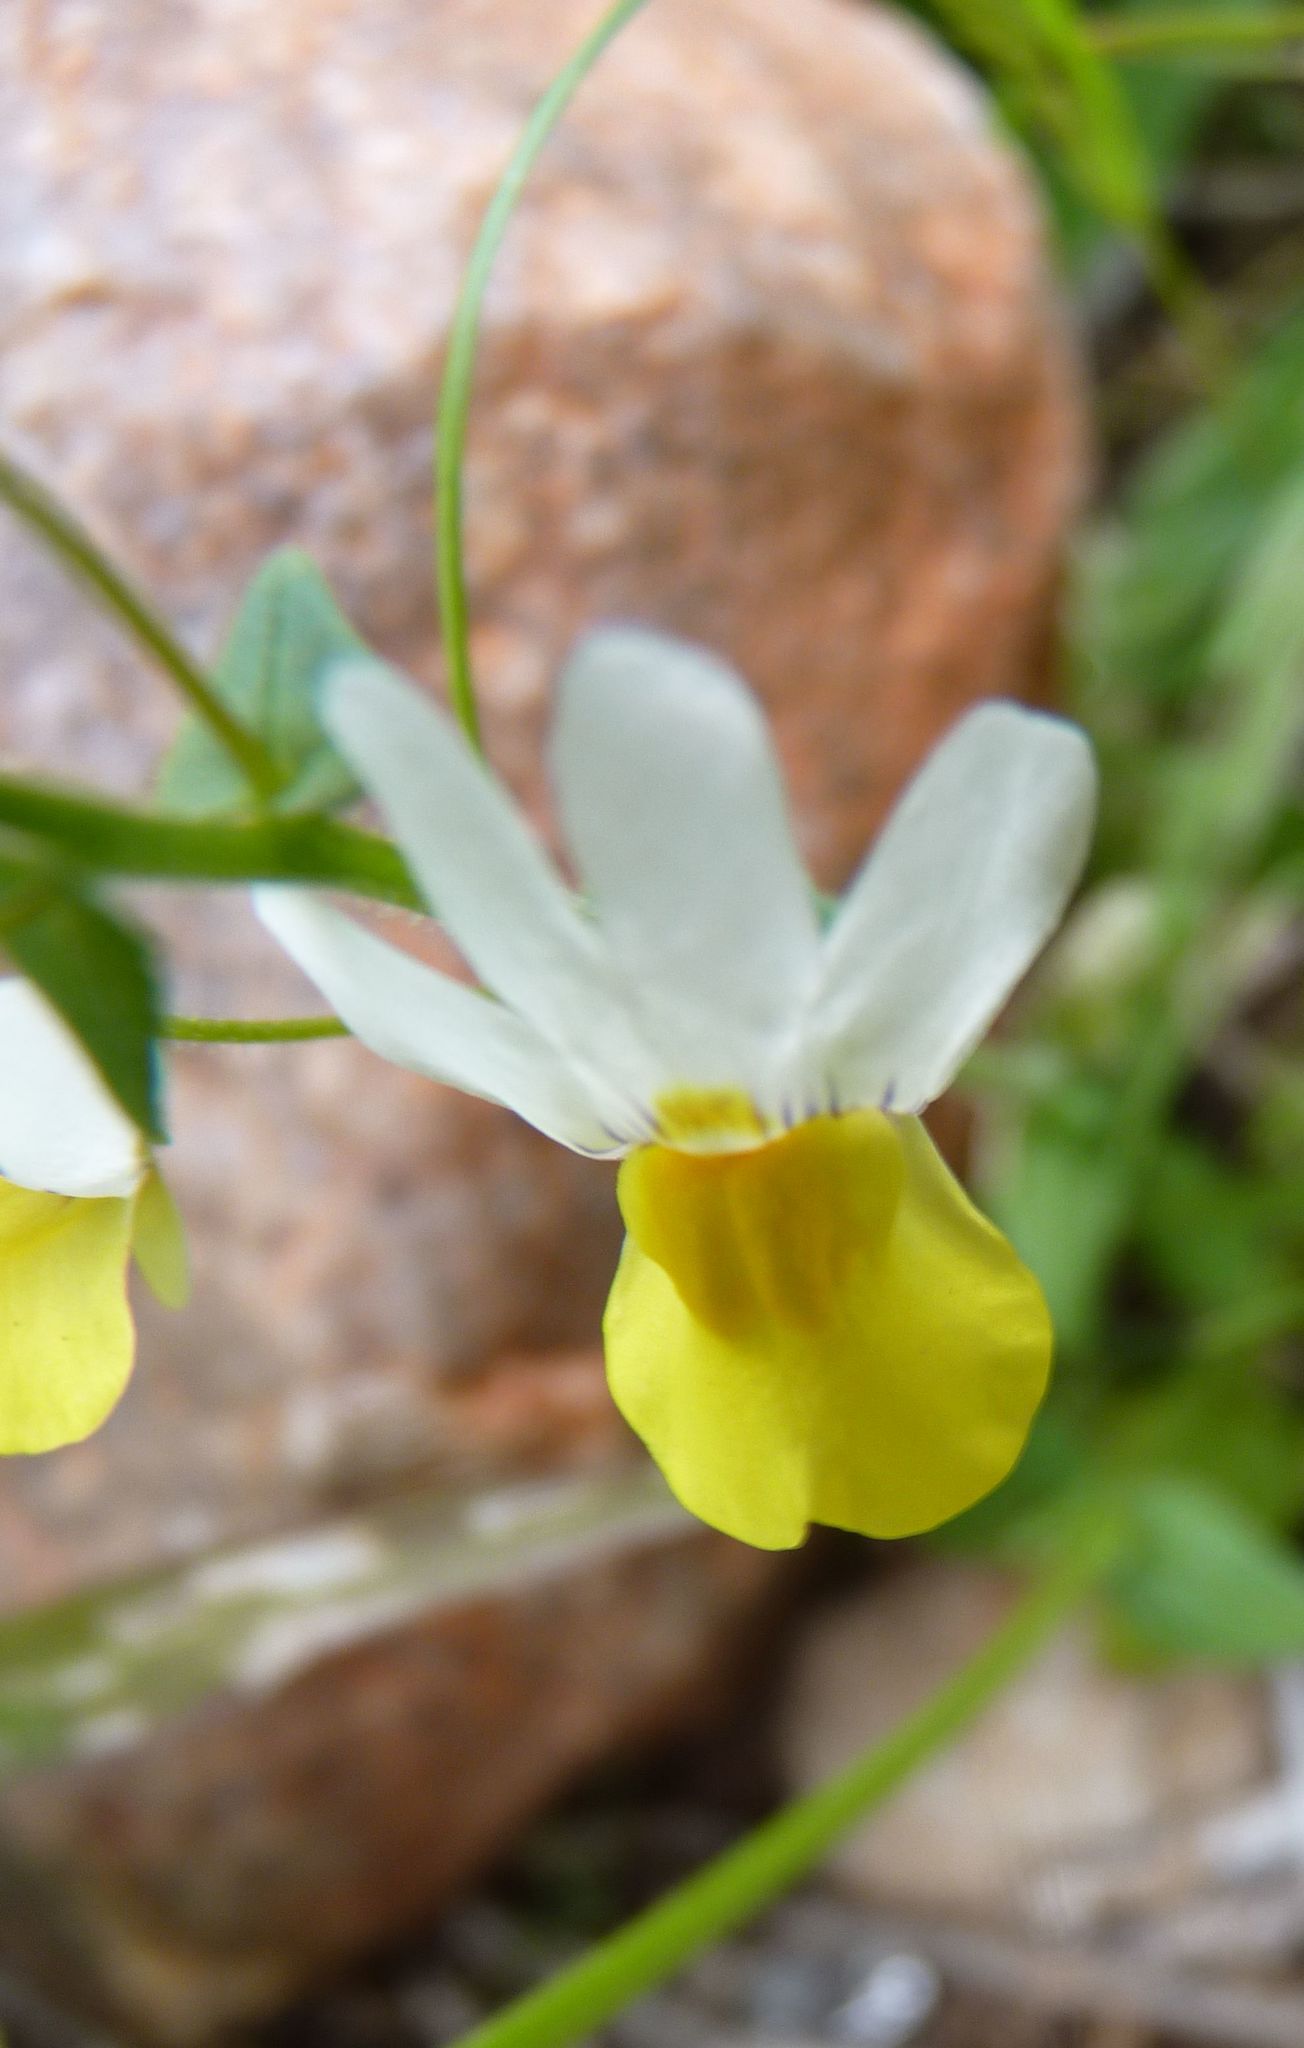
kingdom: Plantae
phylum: Tracheophyta
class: Magnoliopsida
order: Lamiales
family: Scrophulariaceae
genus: Nemesia
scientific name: Nemesia ligulata
